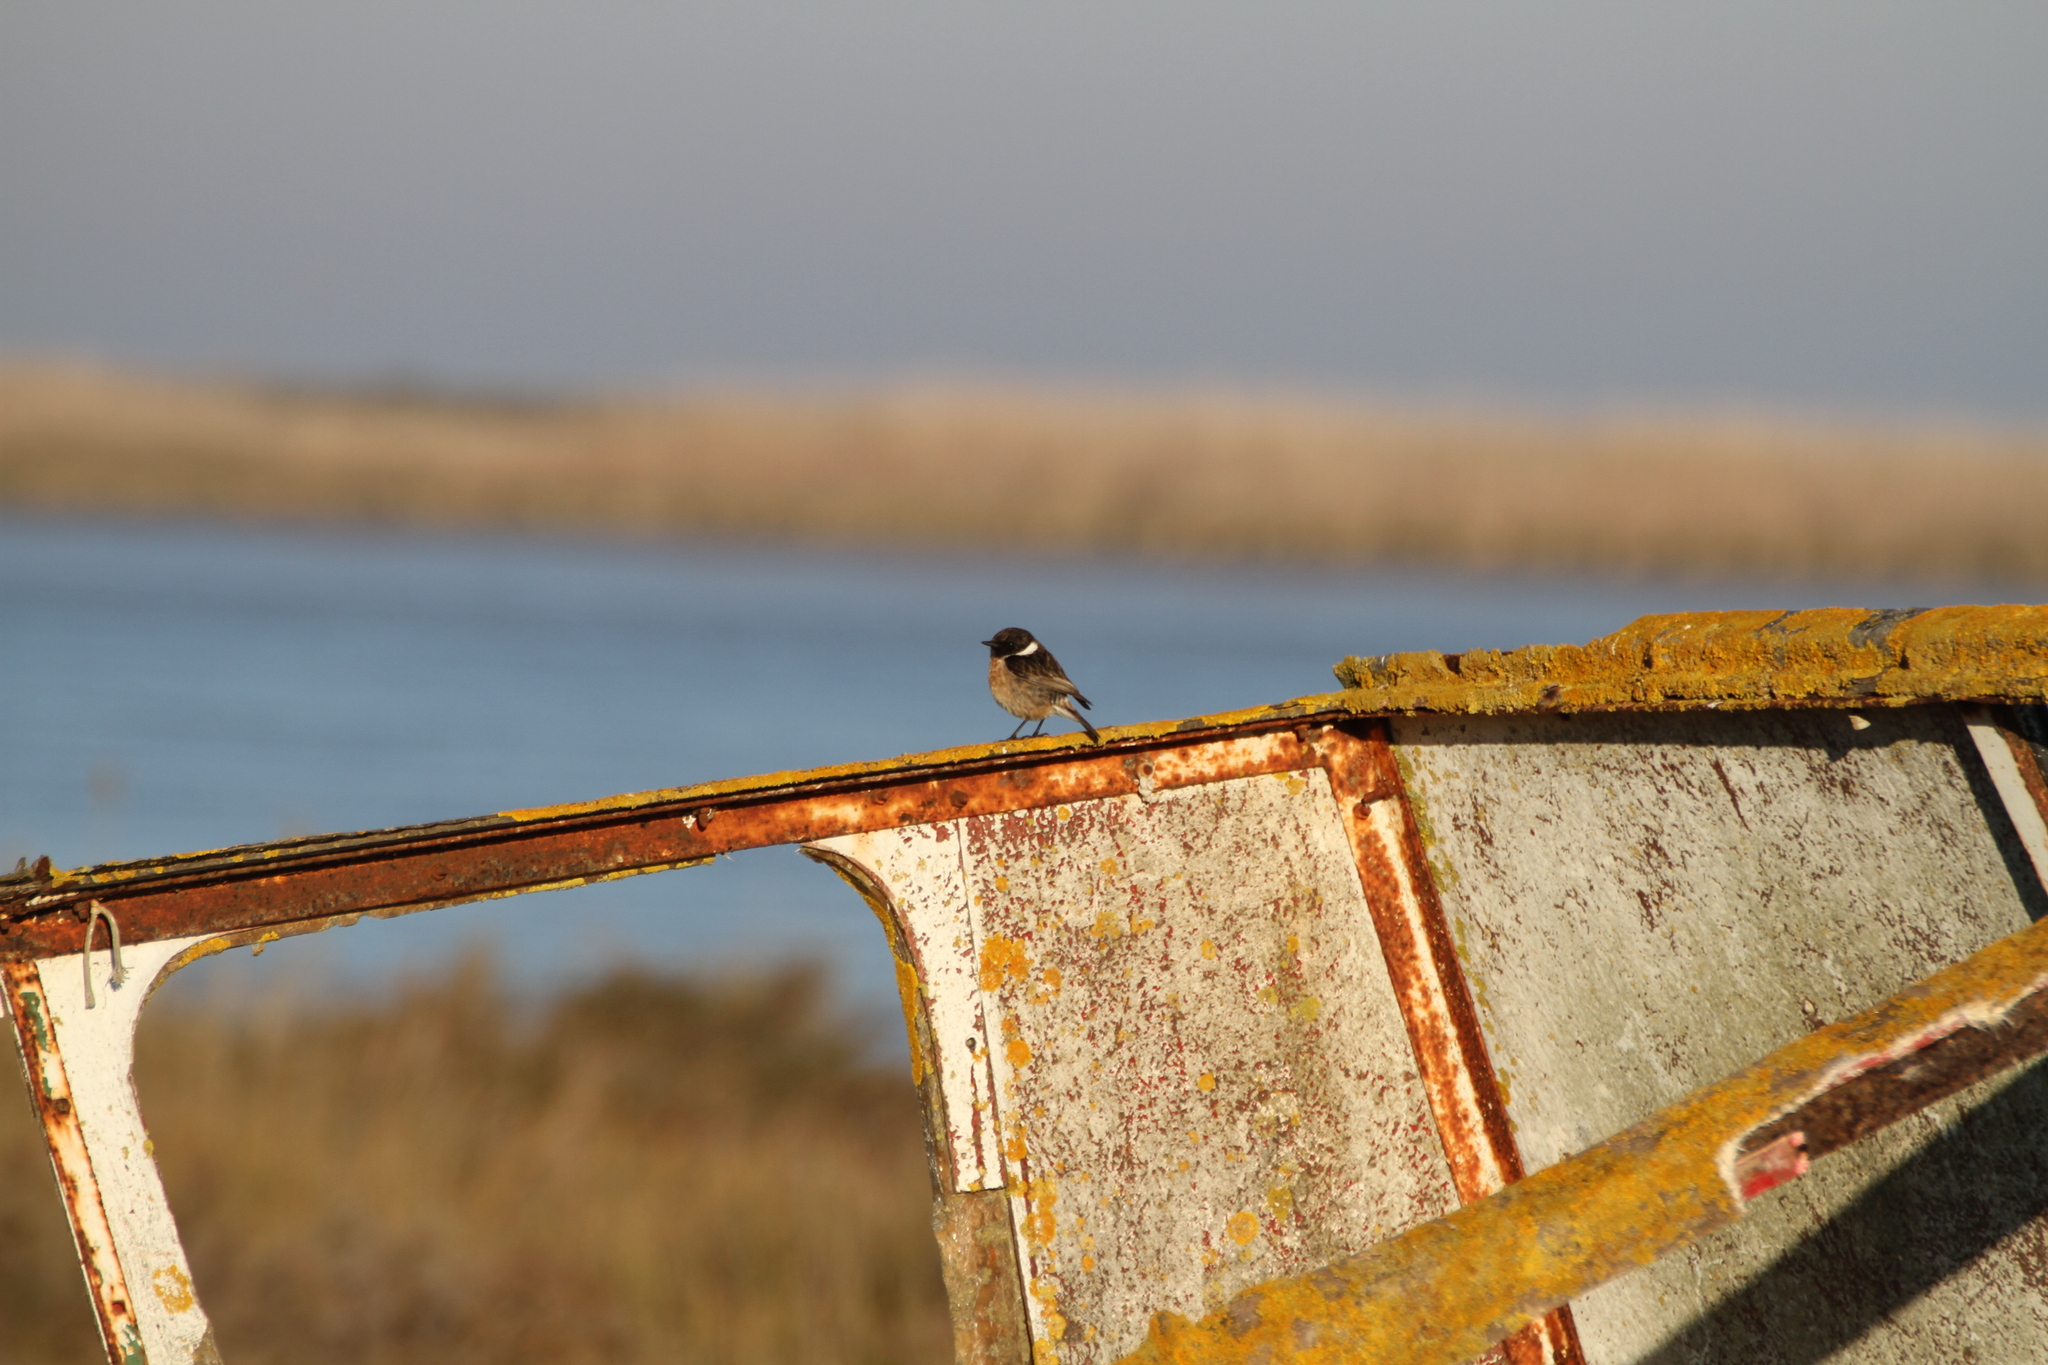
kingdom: Animalia
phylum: Chordata
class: Aves
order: Passeriformes
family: Muscicapidae
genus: Saxicola
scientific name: Saxicola rubicola
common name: European stonechat
